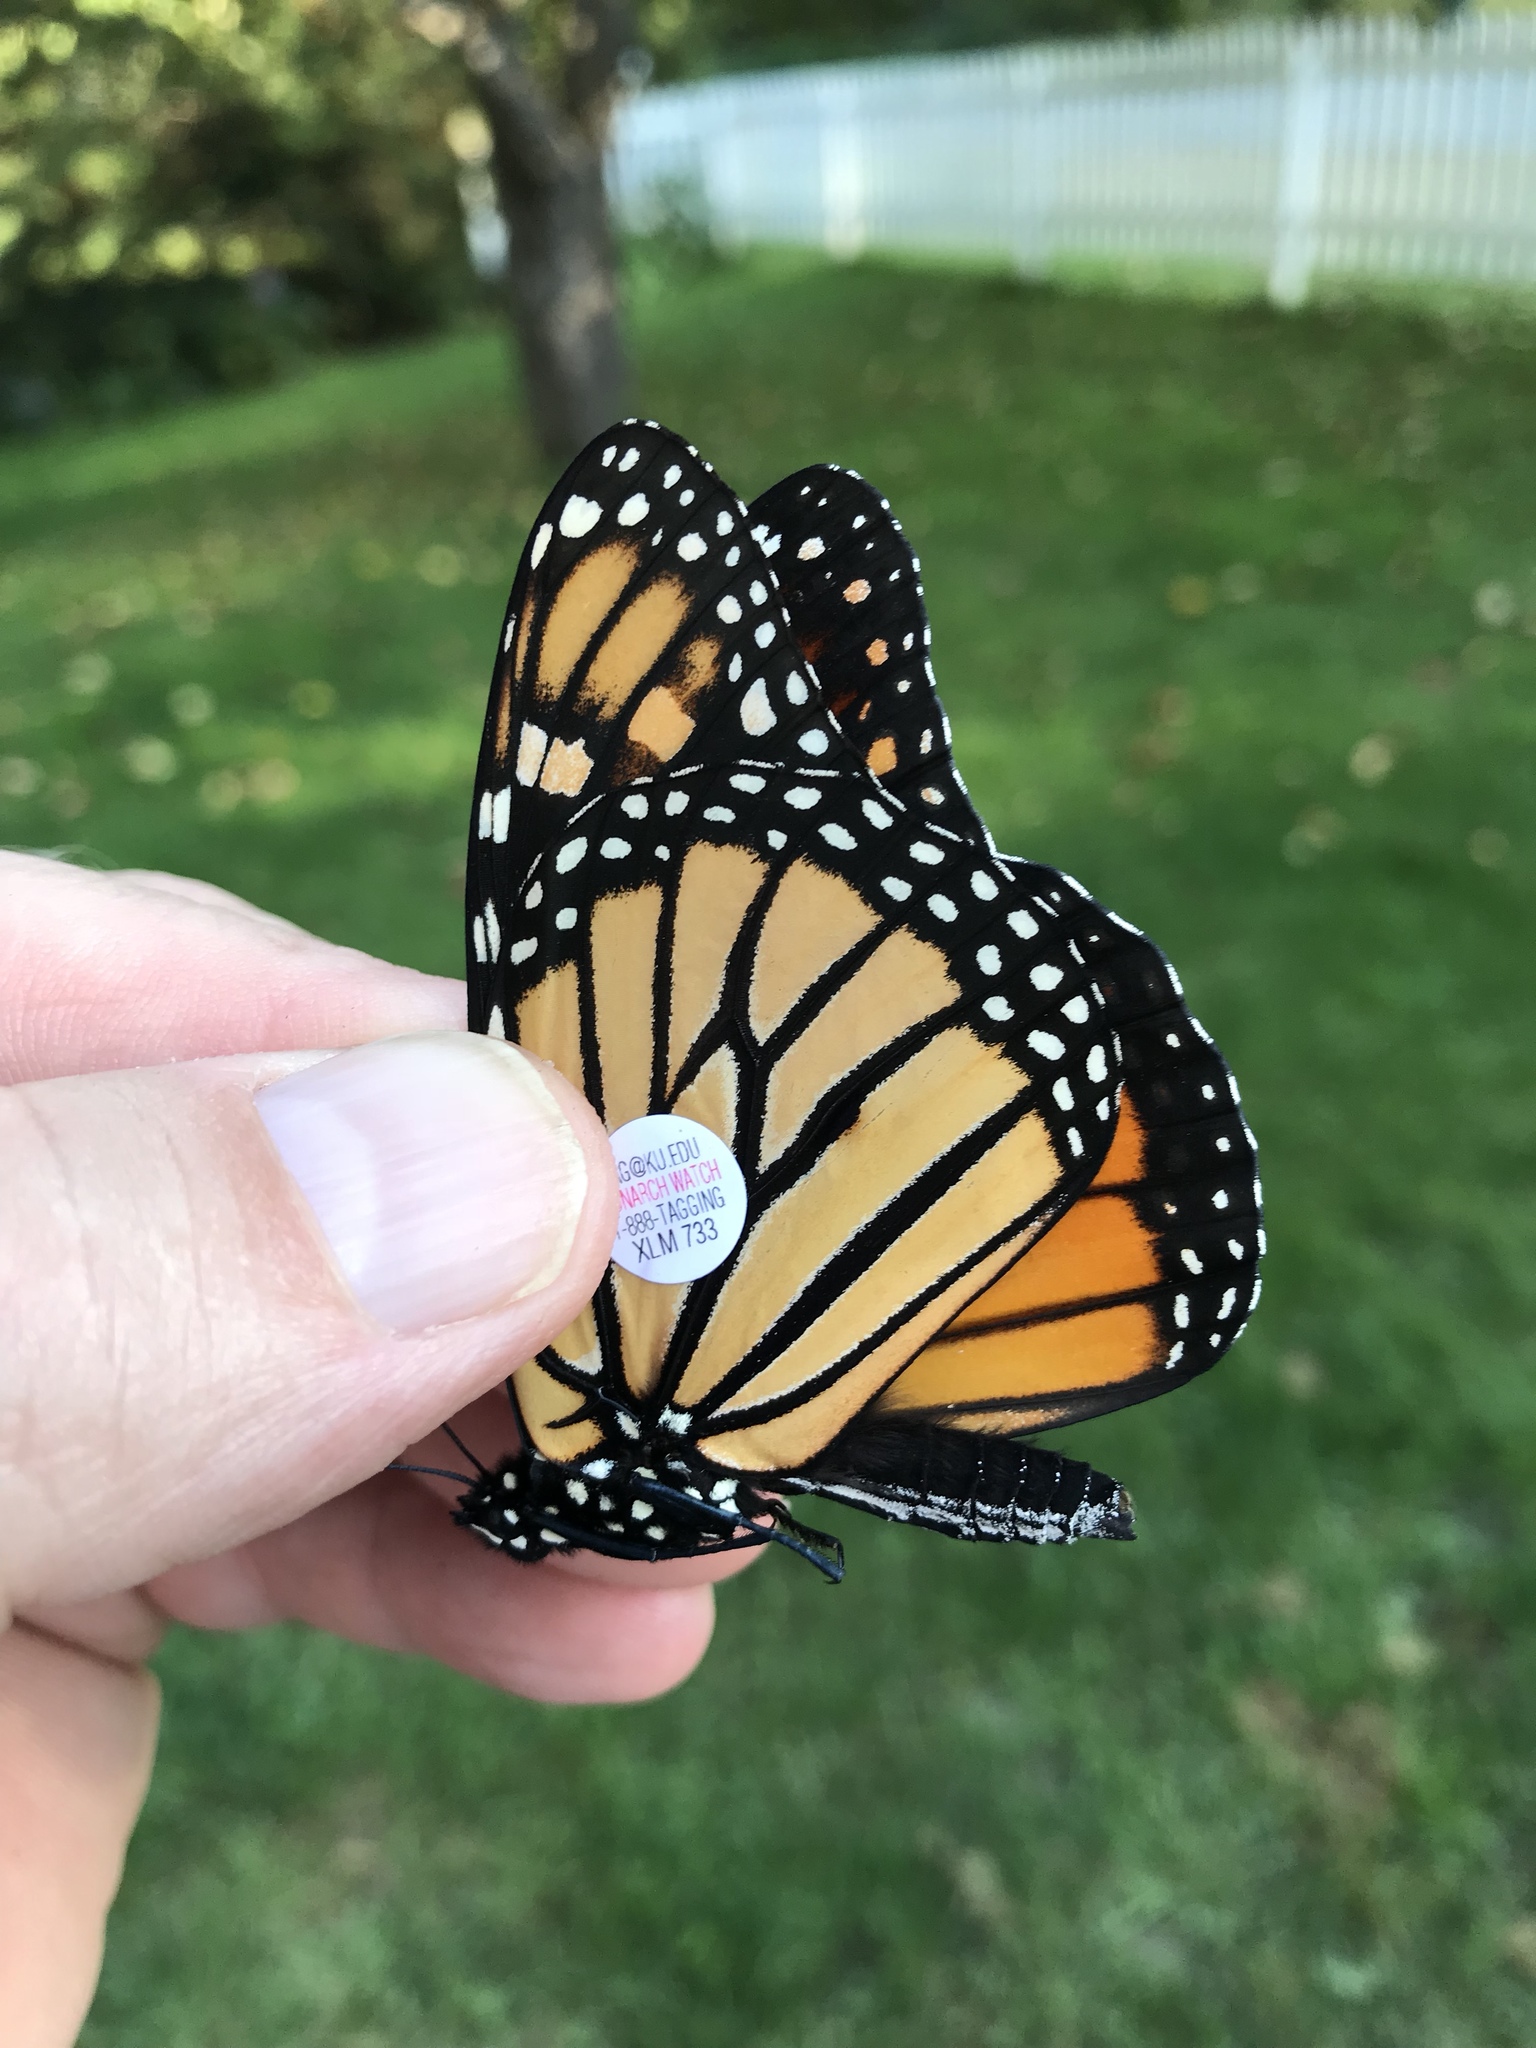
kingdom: Animalia
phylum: Arthropoda
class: Insecta
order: Lepidoptera
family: Nymphalidae
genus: Danaus
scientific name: Danaus plexippus
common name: Monarch
